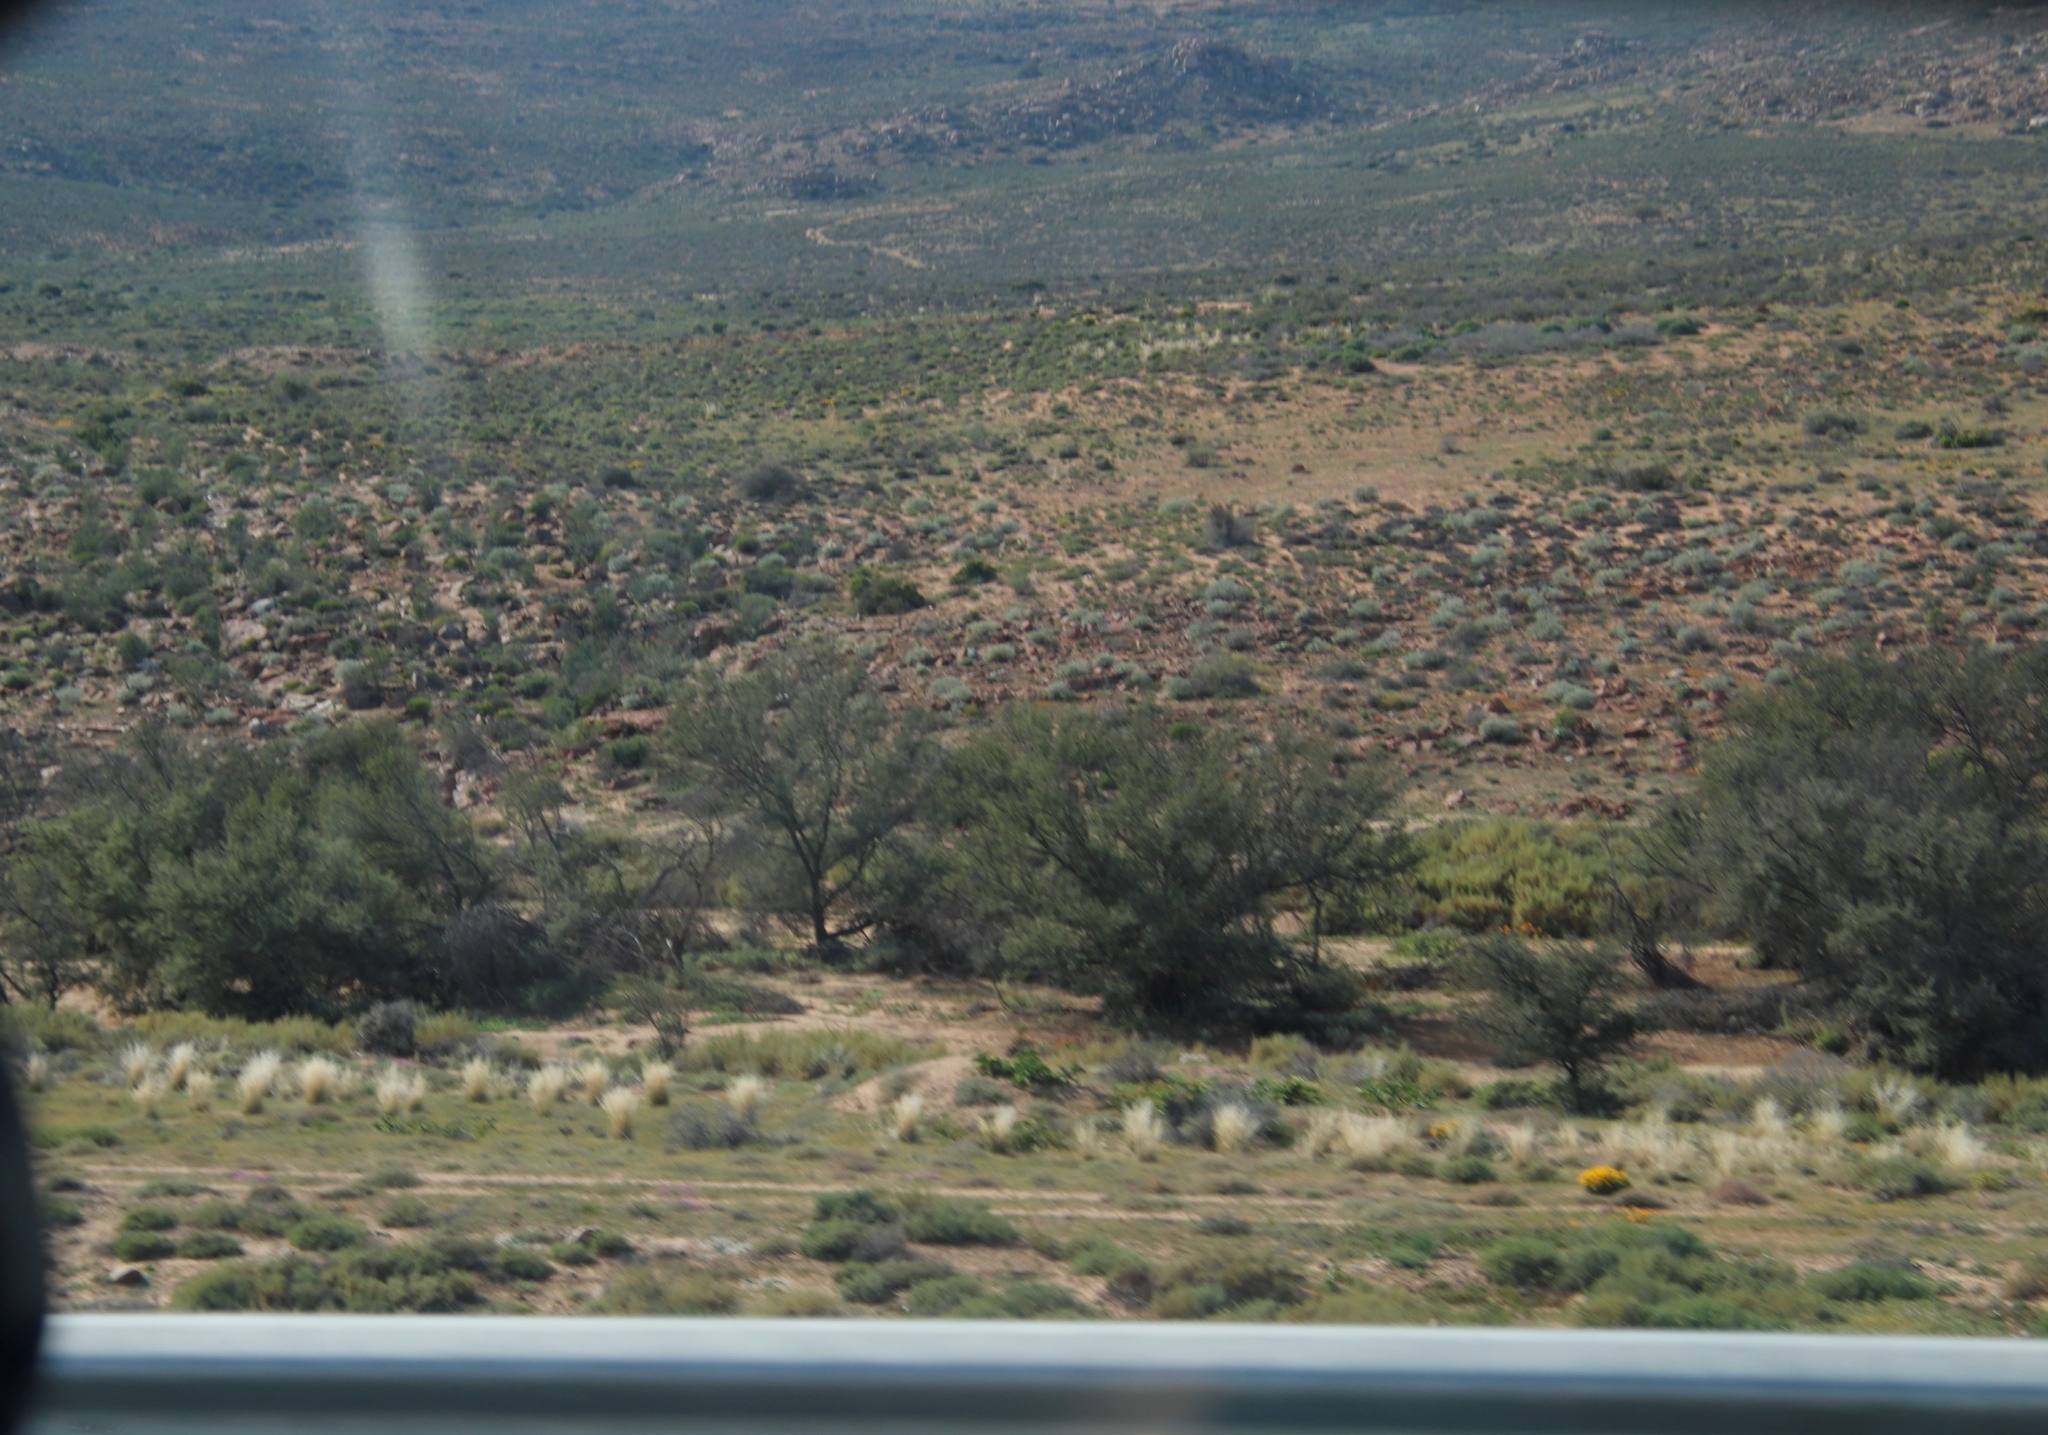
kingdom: Plantae
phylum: Tracheophyta
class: Magnoliopsida
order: Fabales
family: Fabaceae
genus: Vachellia
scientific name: Vachellia karroo
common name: Sweet thorn
